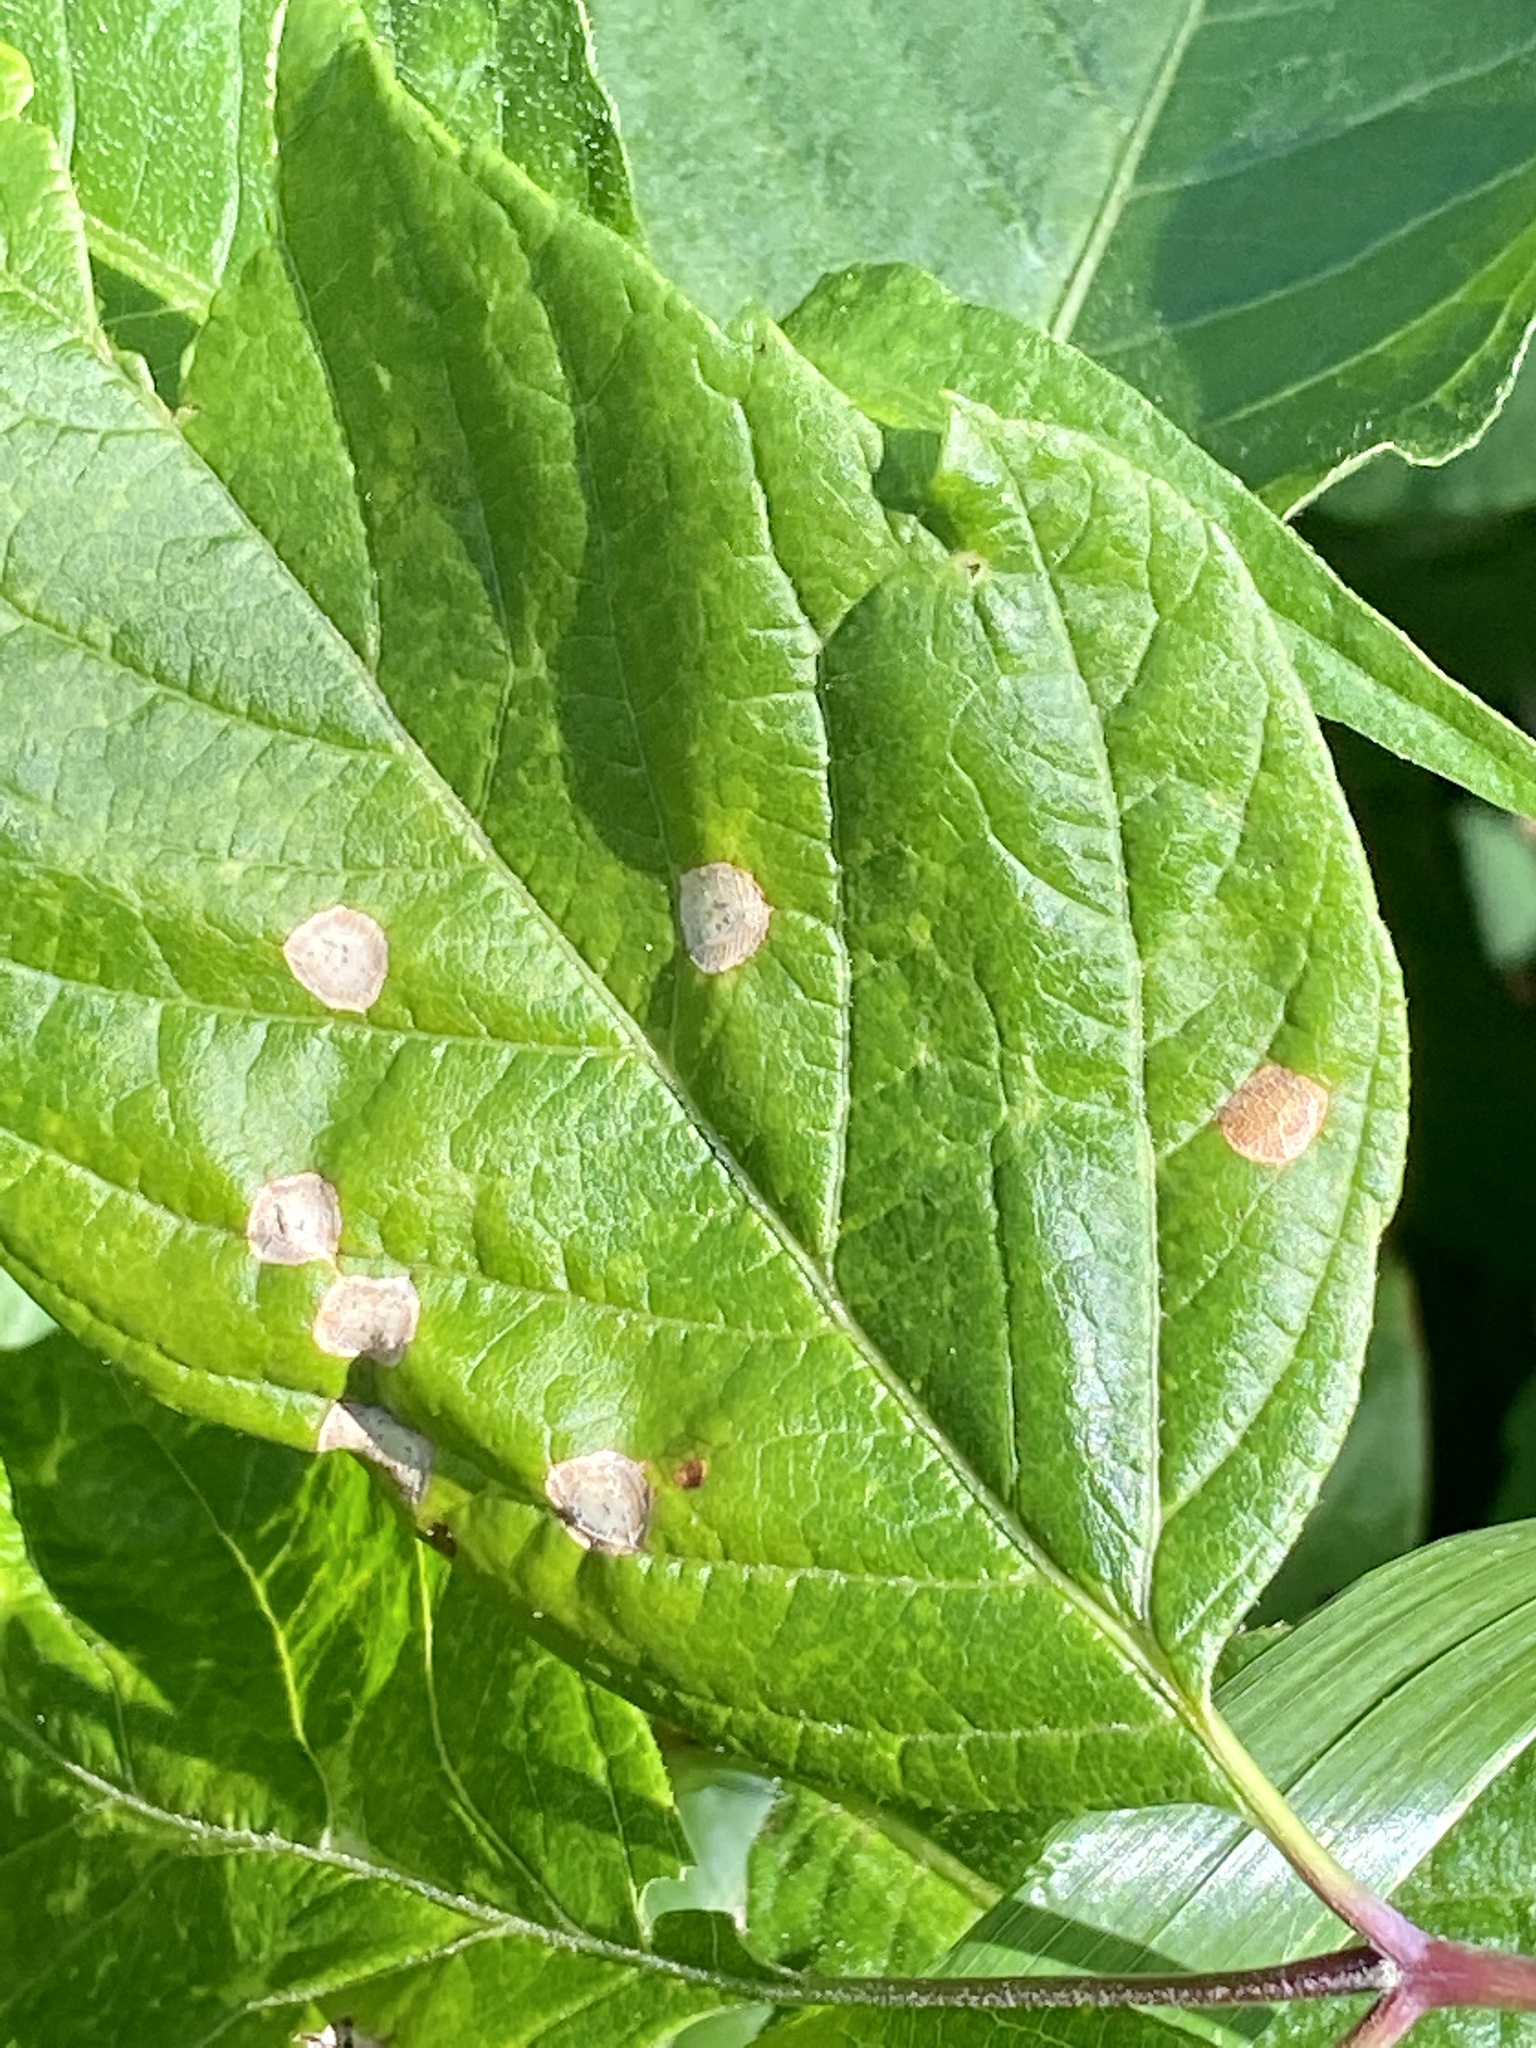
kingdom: Animalia
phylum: Arthropoda
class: Arachnida
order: Trombidiformes
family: Eriophyidae
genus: Aceria
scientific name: Aceria
